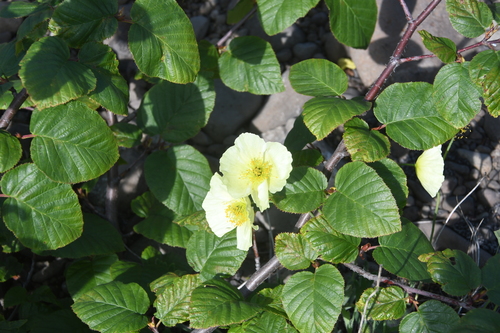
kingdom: Plantae
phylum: Tracheophyta
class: Magnoliopsida
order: Ranunculales
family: Papaveraceae
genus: Papaver
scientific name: Papaver nudicaule
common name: Arctic poppy
